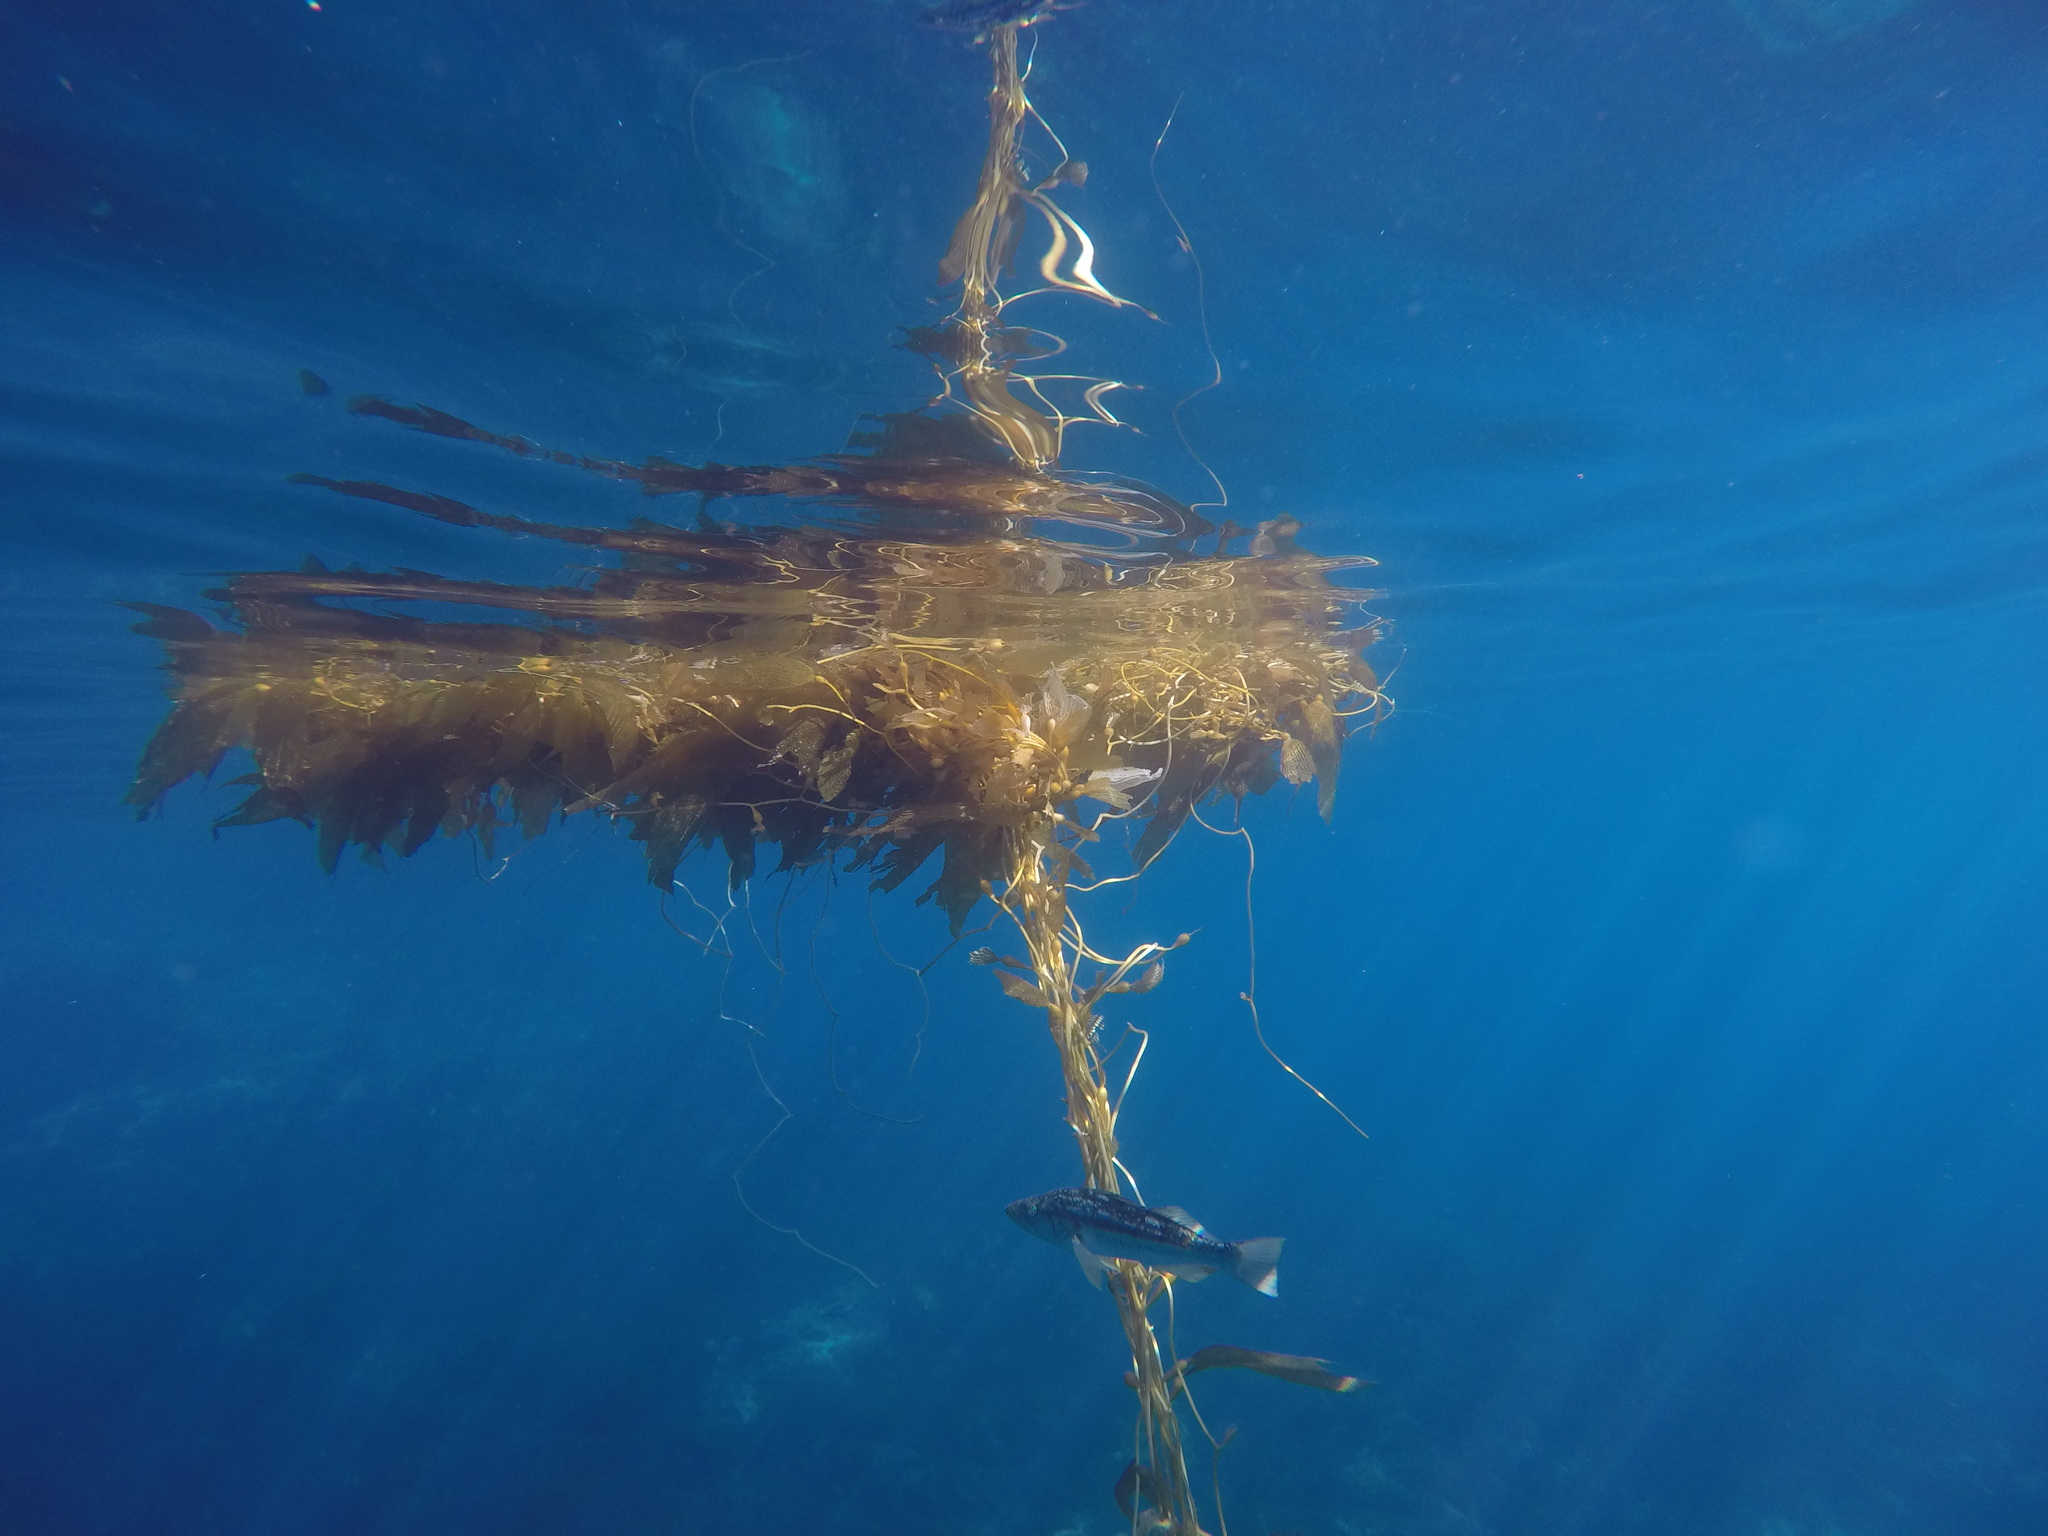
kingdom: Chromista
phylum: Ochrophyta
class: Phaeophyceae
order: Laminariales
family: Laminariaceae
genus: Macrocystis
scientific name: Macrocystis pyrifera
